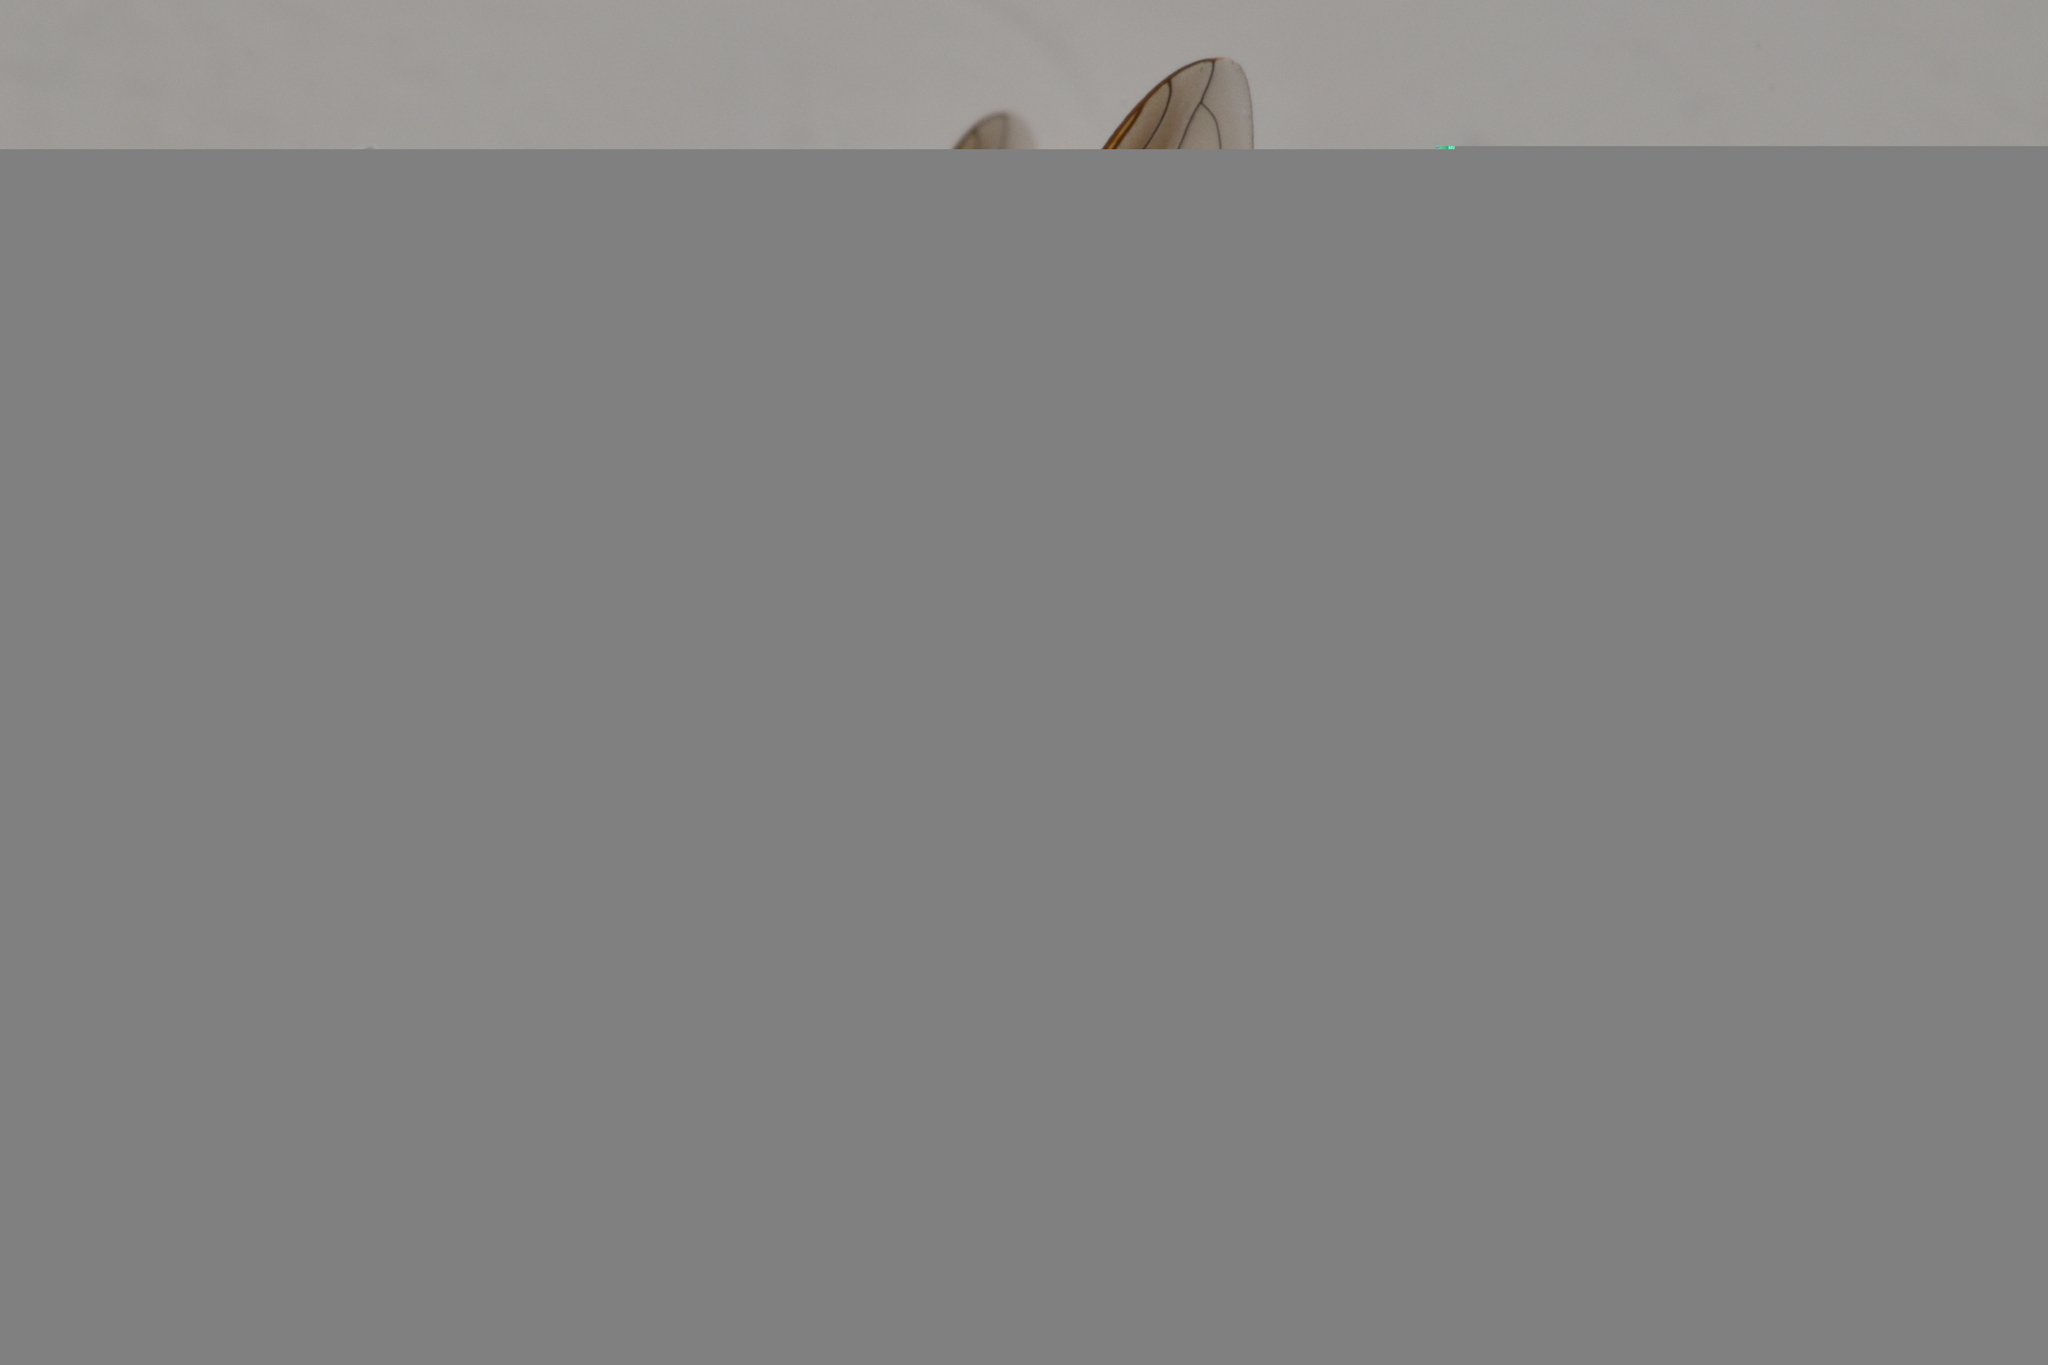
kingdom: Animalia
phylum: Arthropoda
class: Insecta
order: Diptera
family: Syrphidae
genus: Sericomyia
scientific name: Sericomyia chalcopyga
